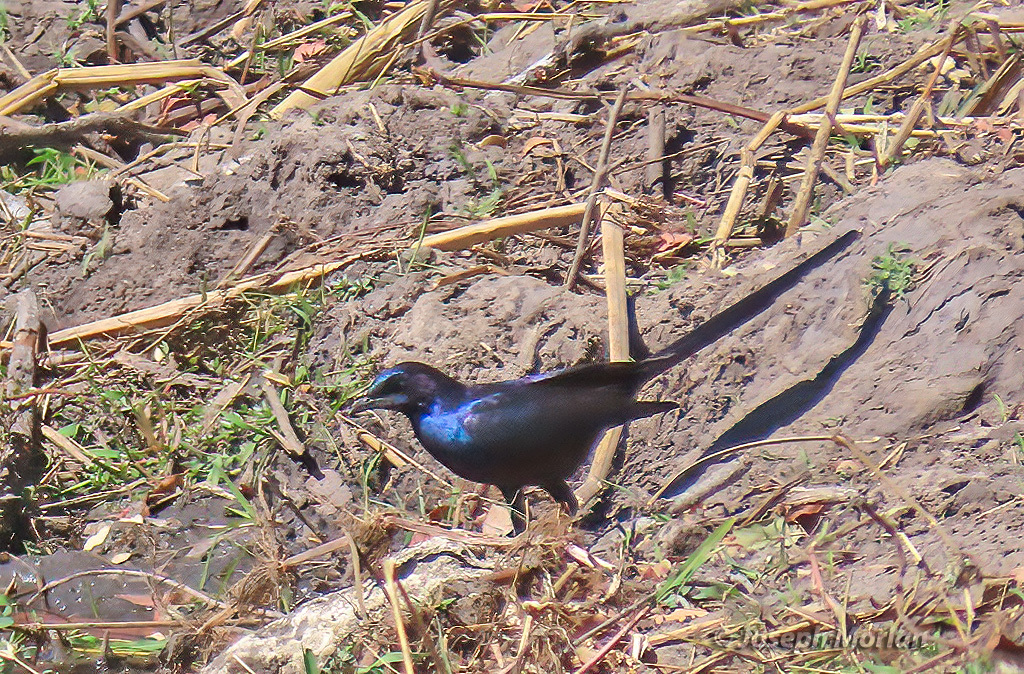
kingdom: Animalia
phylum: Chordata
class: Aves
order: Passeriformes
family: Sturnidae
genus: Lamprotornis
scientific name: Lamprotornis mevesii
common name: Meves's starling
